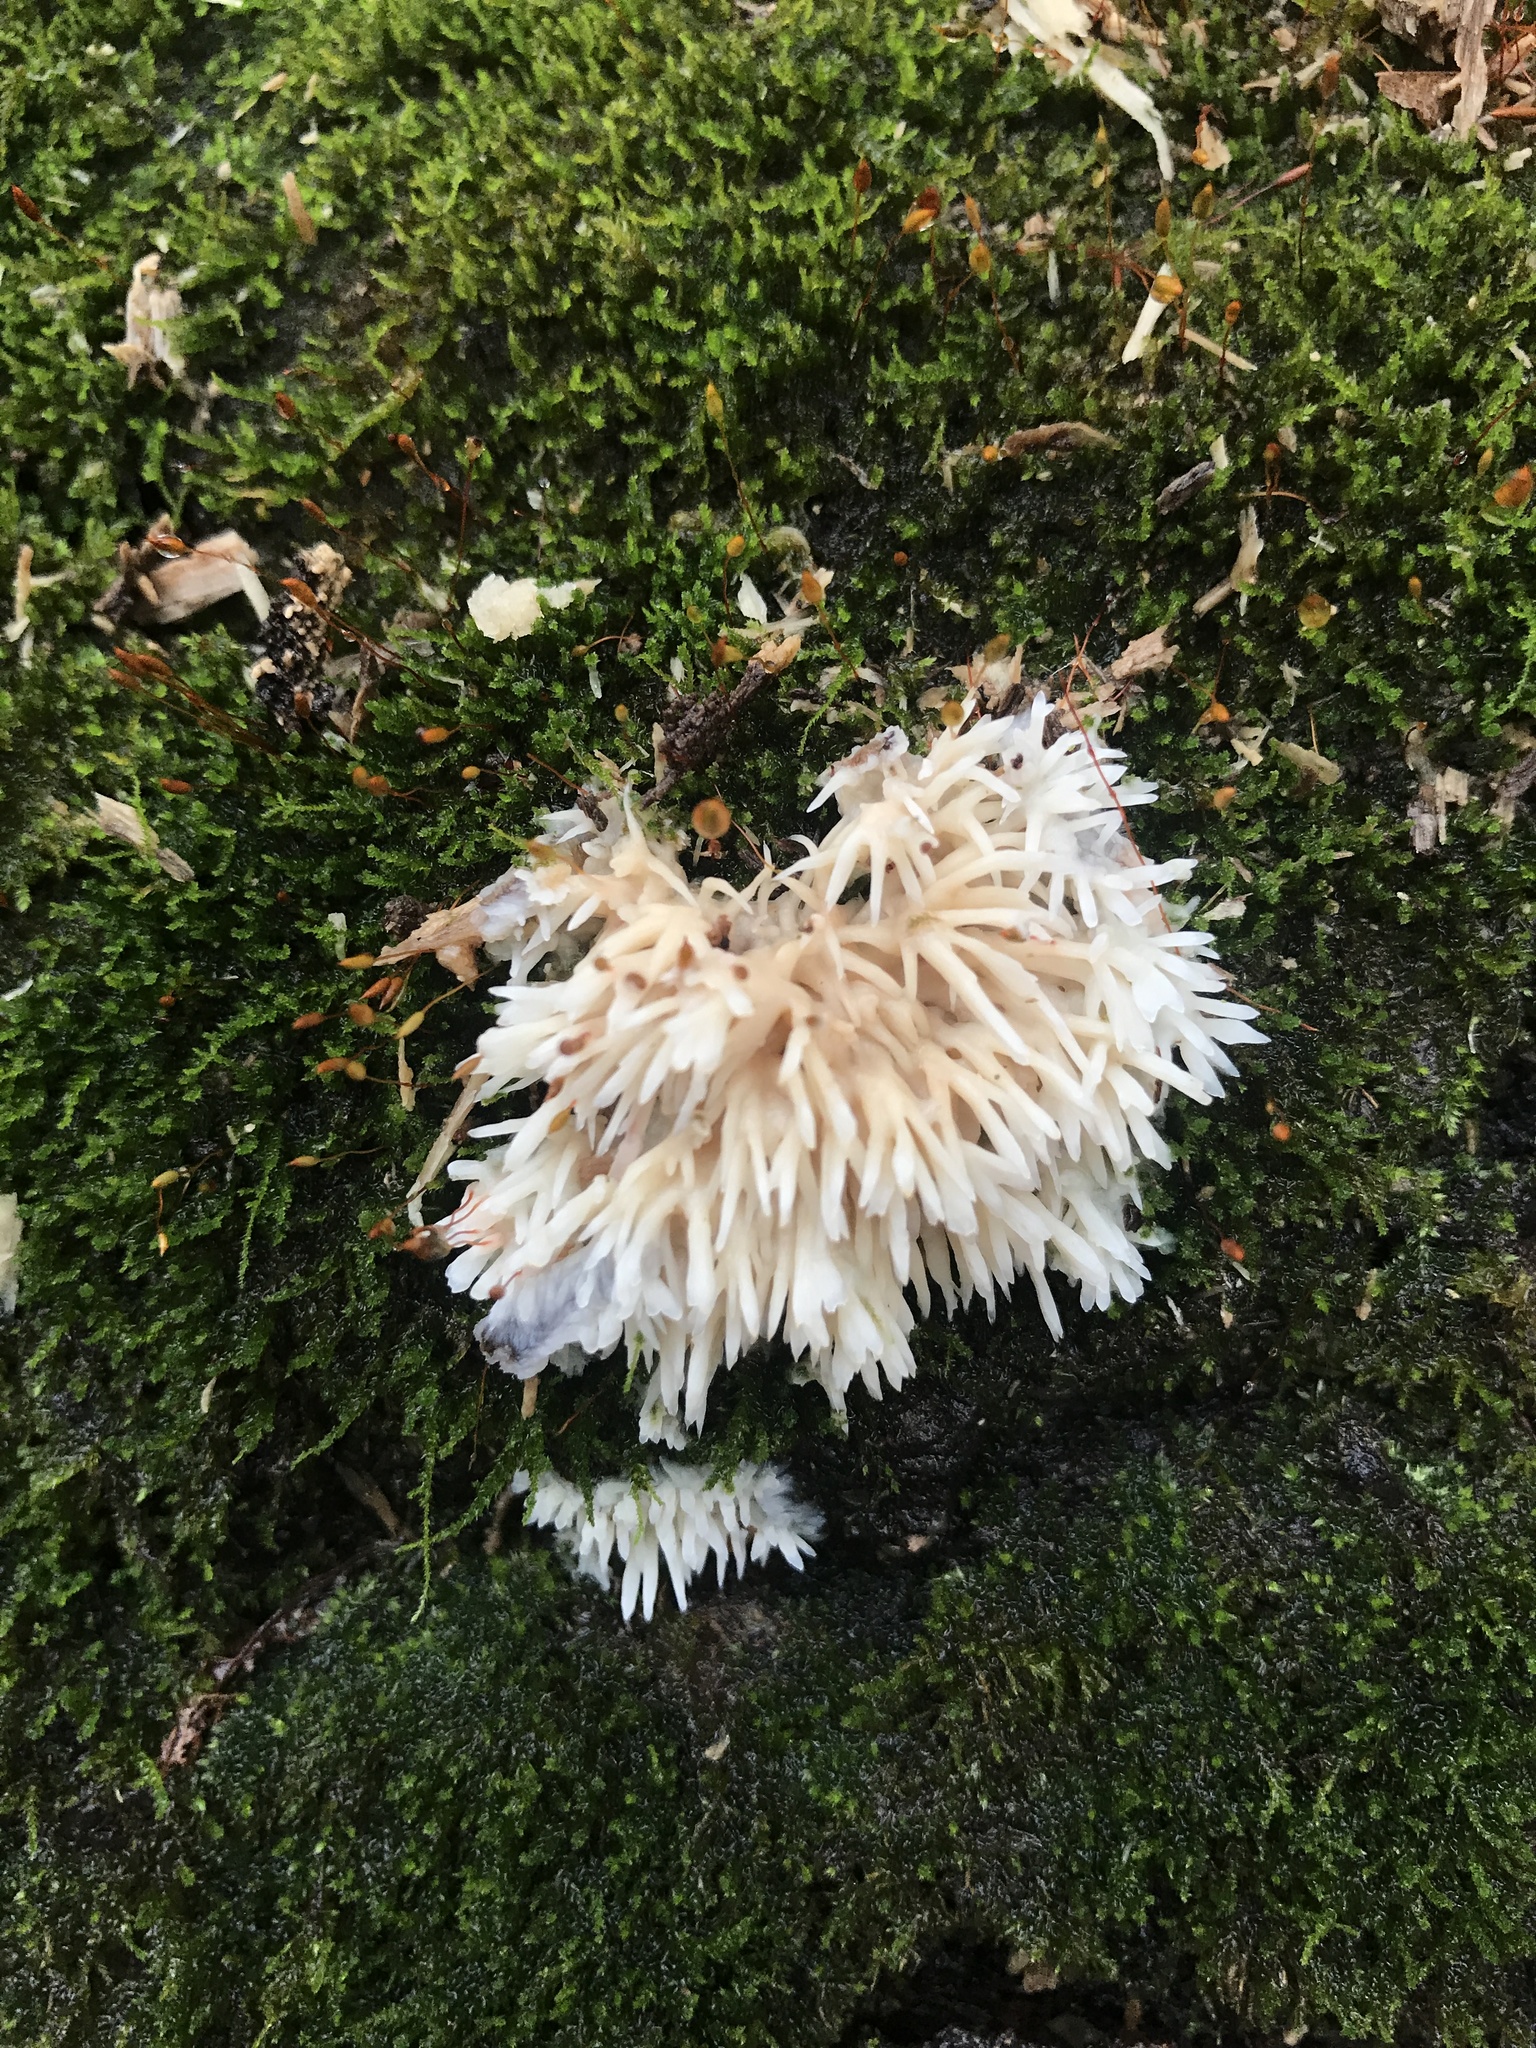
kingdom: Fungi
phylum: Basidiomycota
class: Agaricomycetes
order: Agaricales
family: Radulomycetaceae
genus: Radulomyces
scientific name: Radulomyces copelandii
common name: Asian beauty
